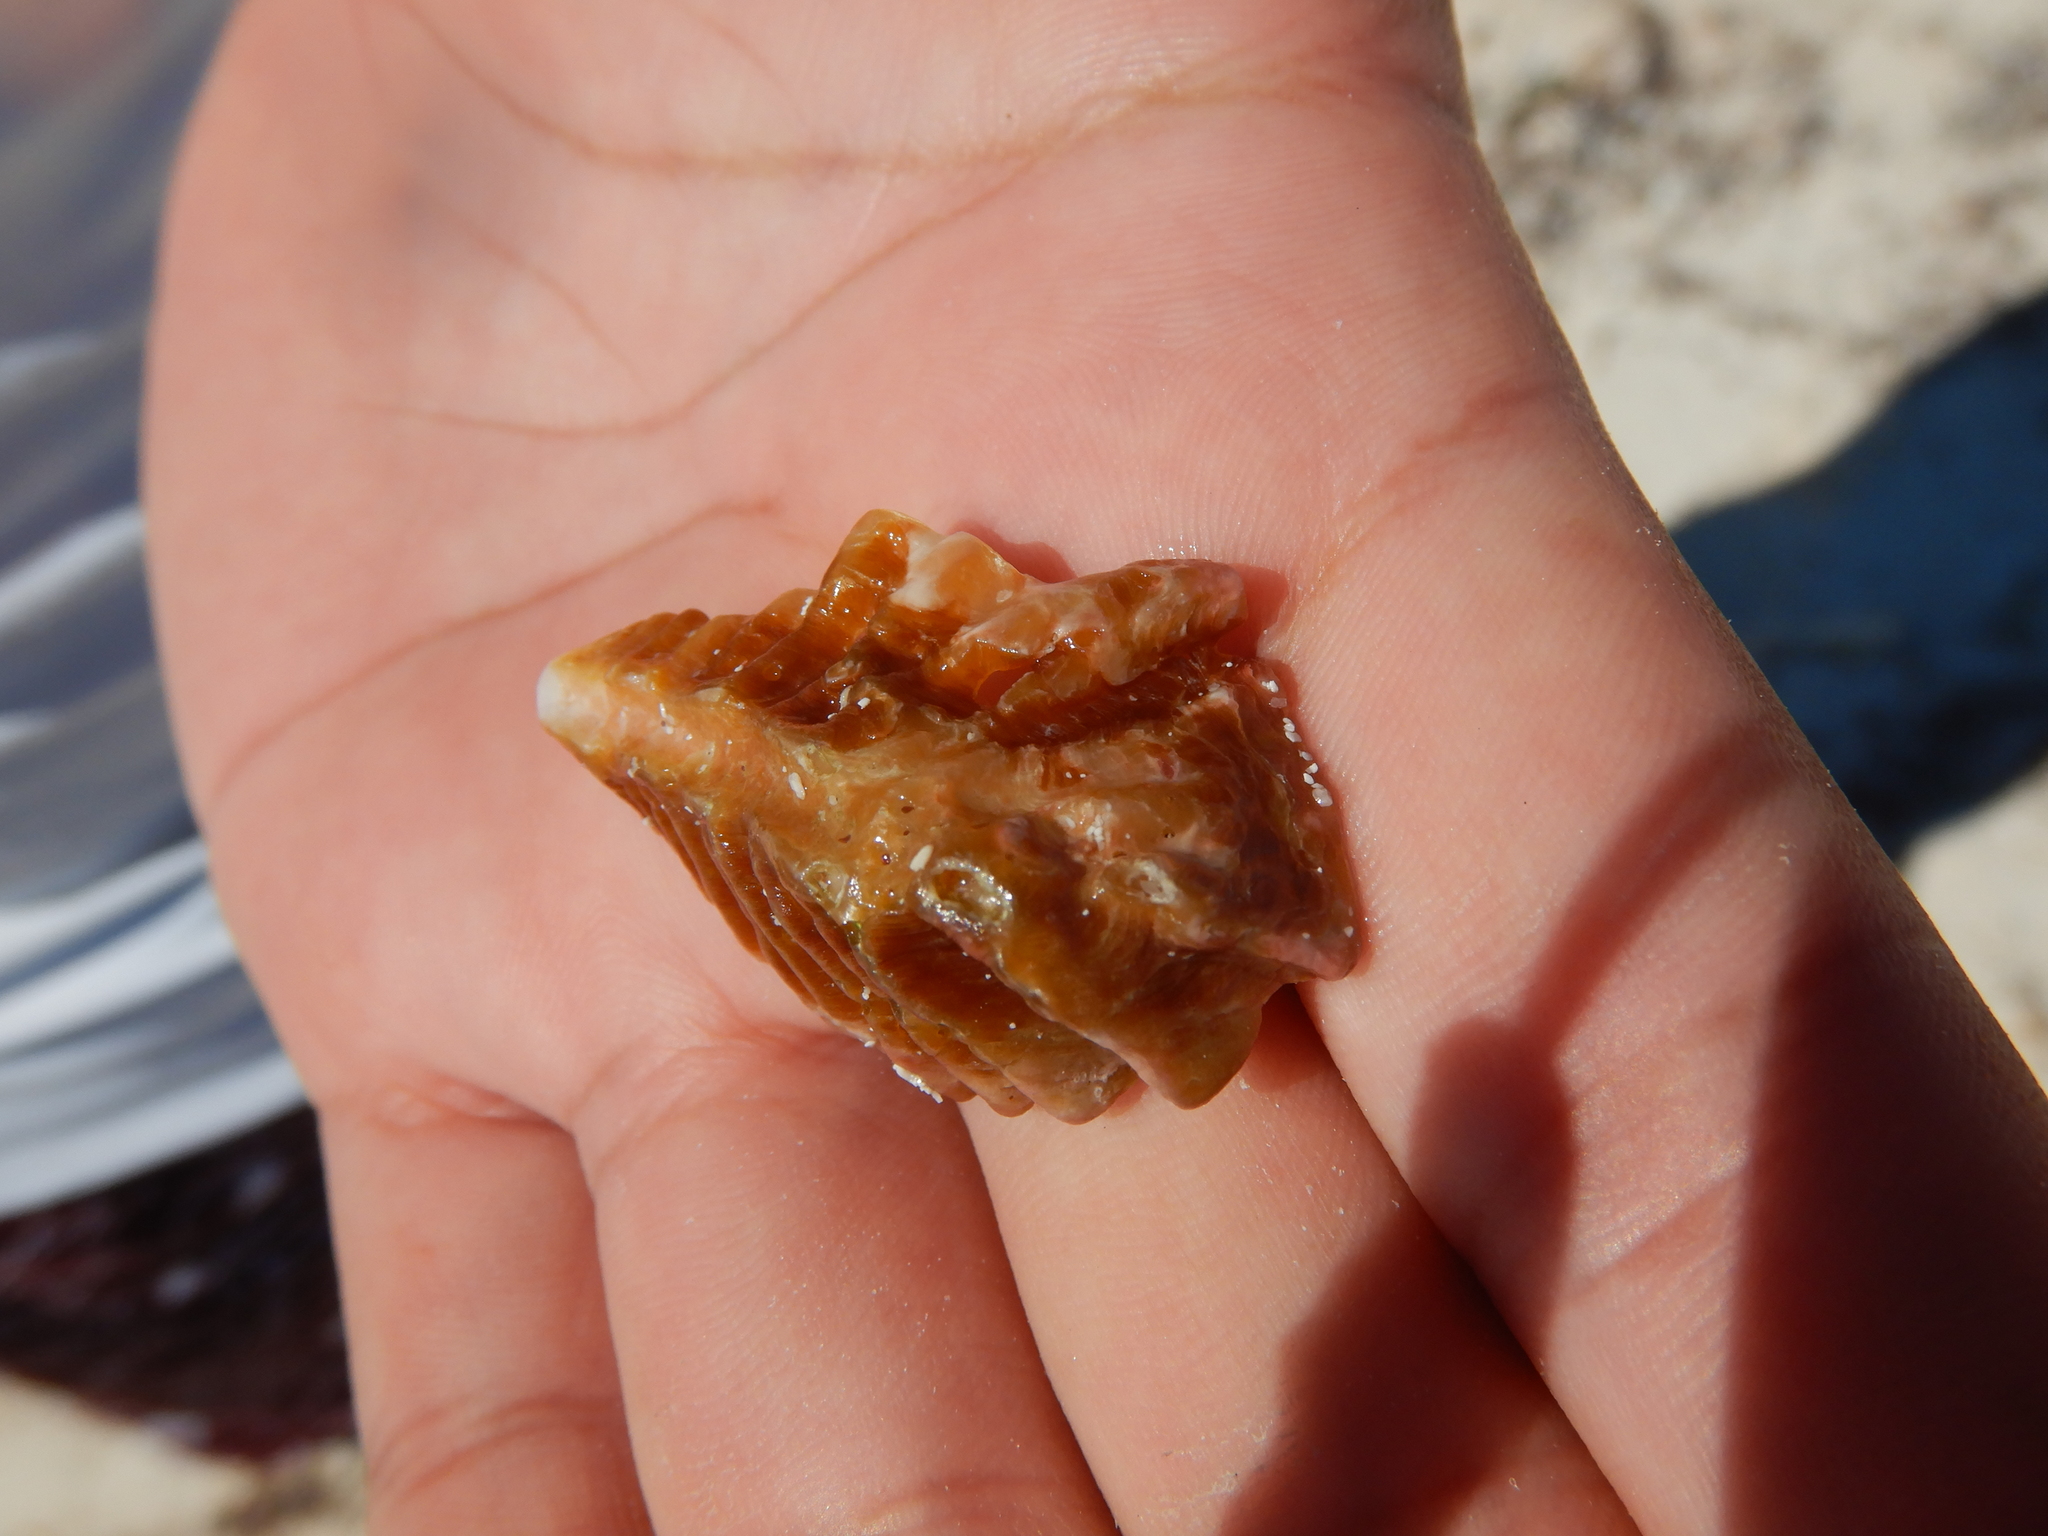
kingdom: Animalia
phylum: Mollusca
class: Bivalvia
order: Ostreida
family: Ostreidae
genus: Dendostrea
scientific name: Dendostrea frons
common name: Frond oyster
